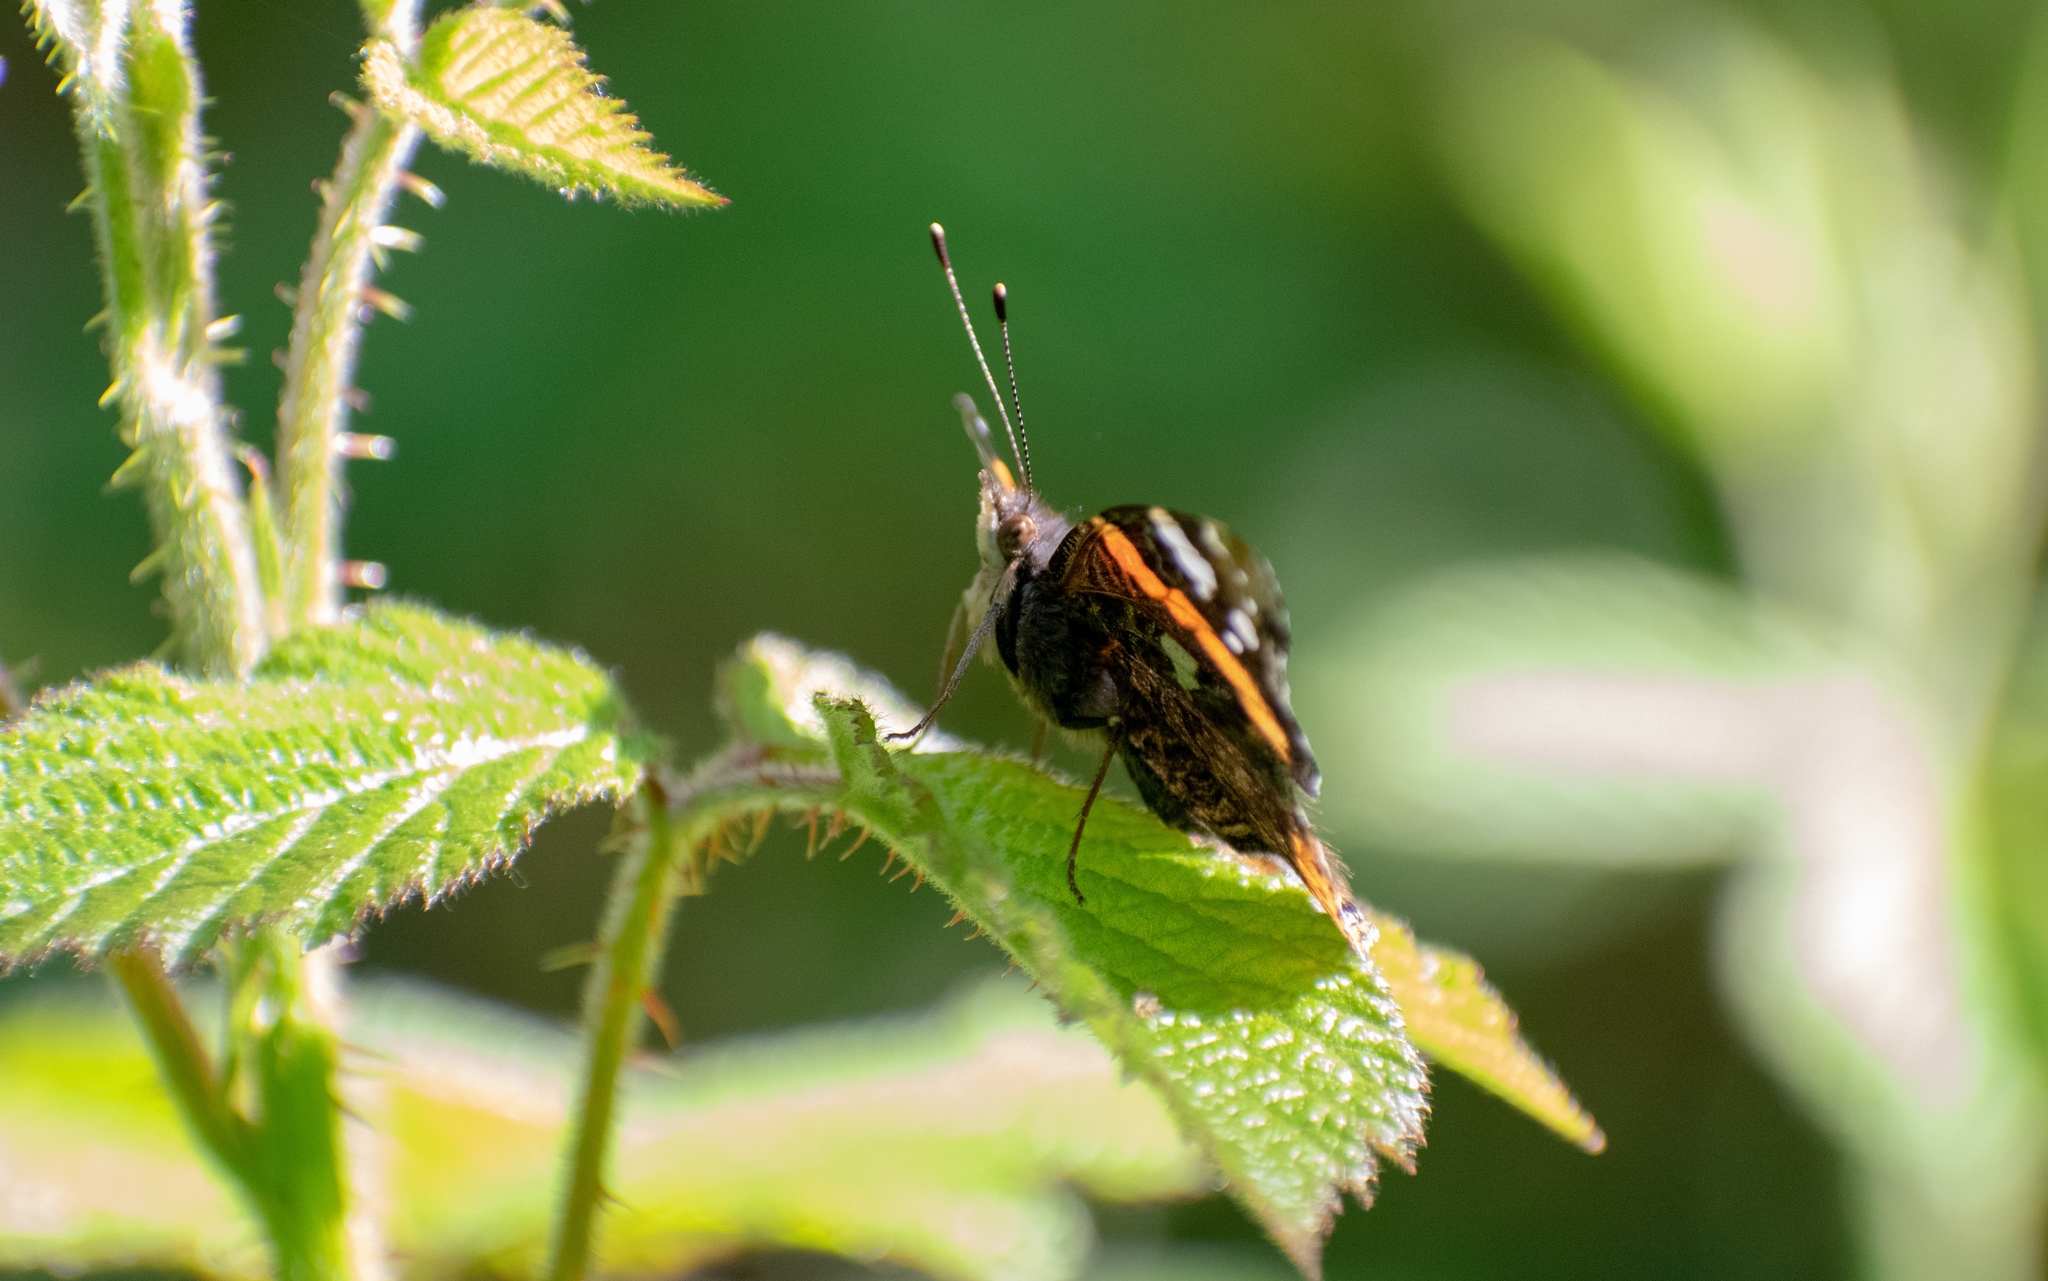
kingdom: Animalia
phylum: Arthropoda
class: Insecta
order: Lepidoptera
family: Nymphalidae
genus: Vanessa
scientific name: Vanessa atalanta
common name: Red admiral
